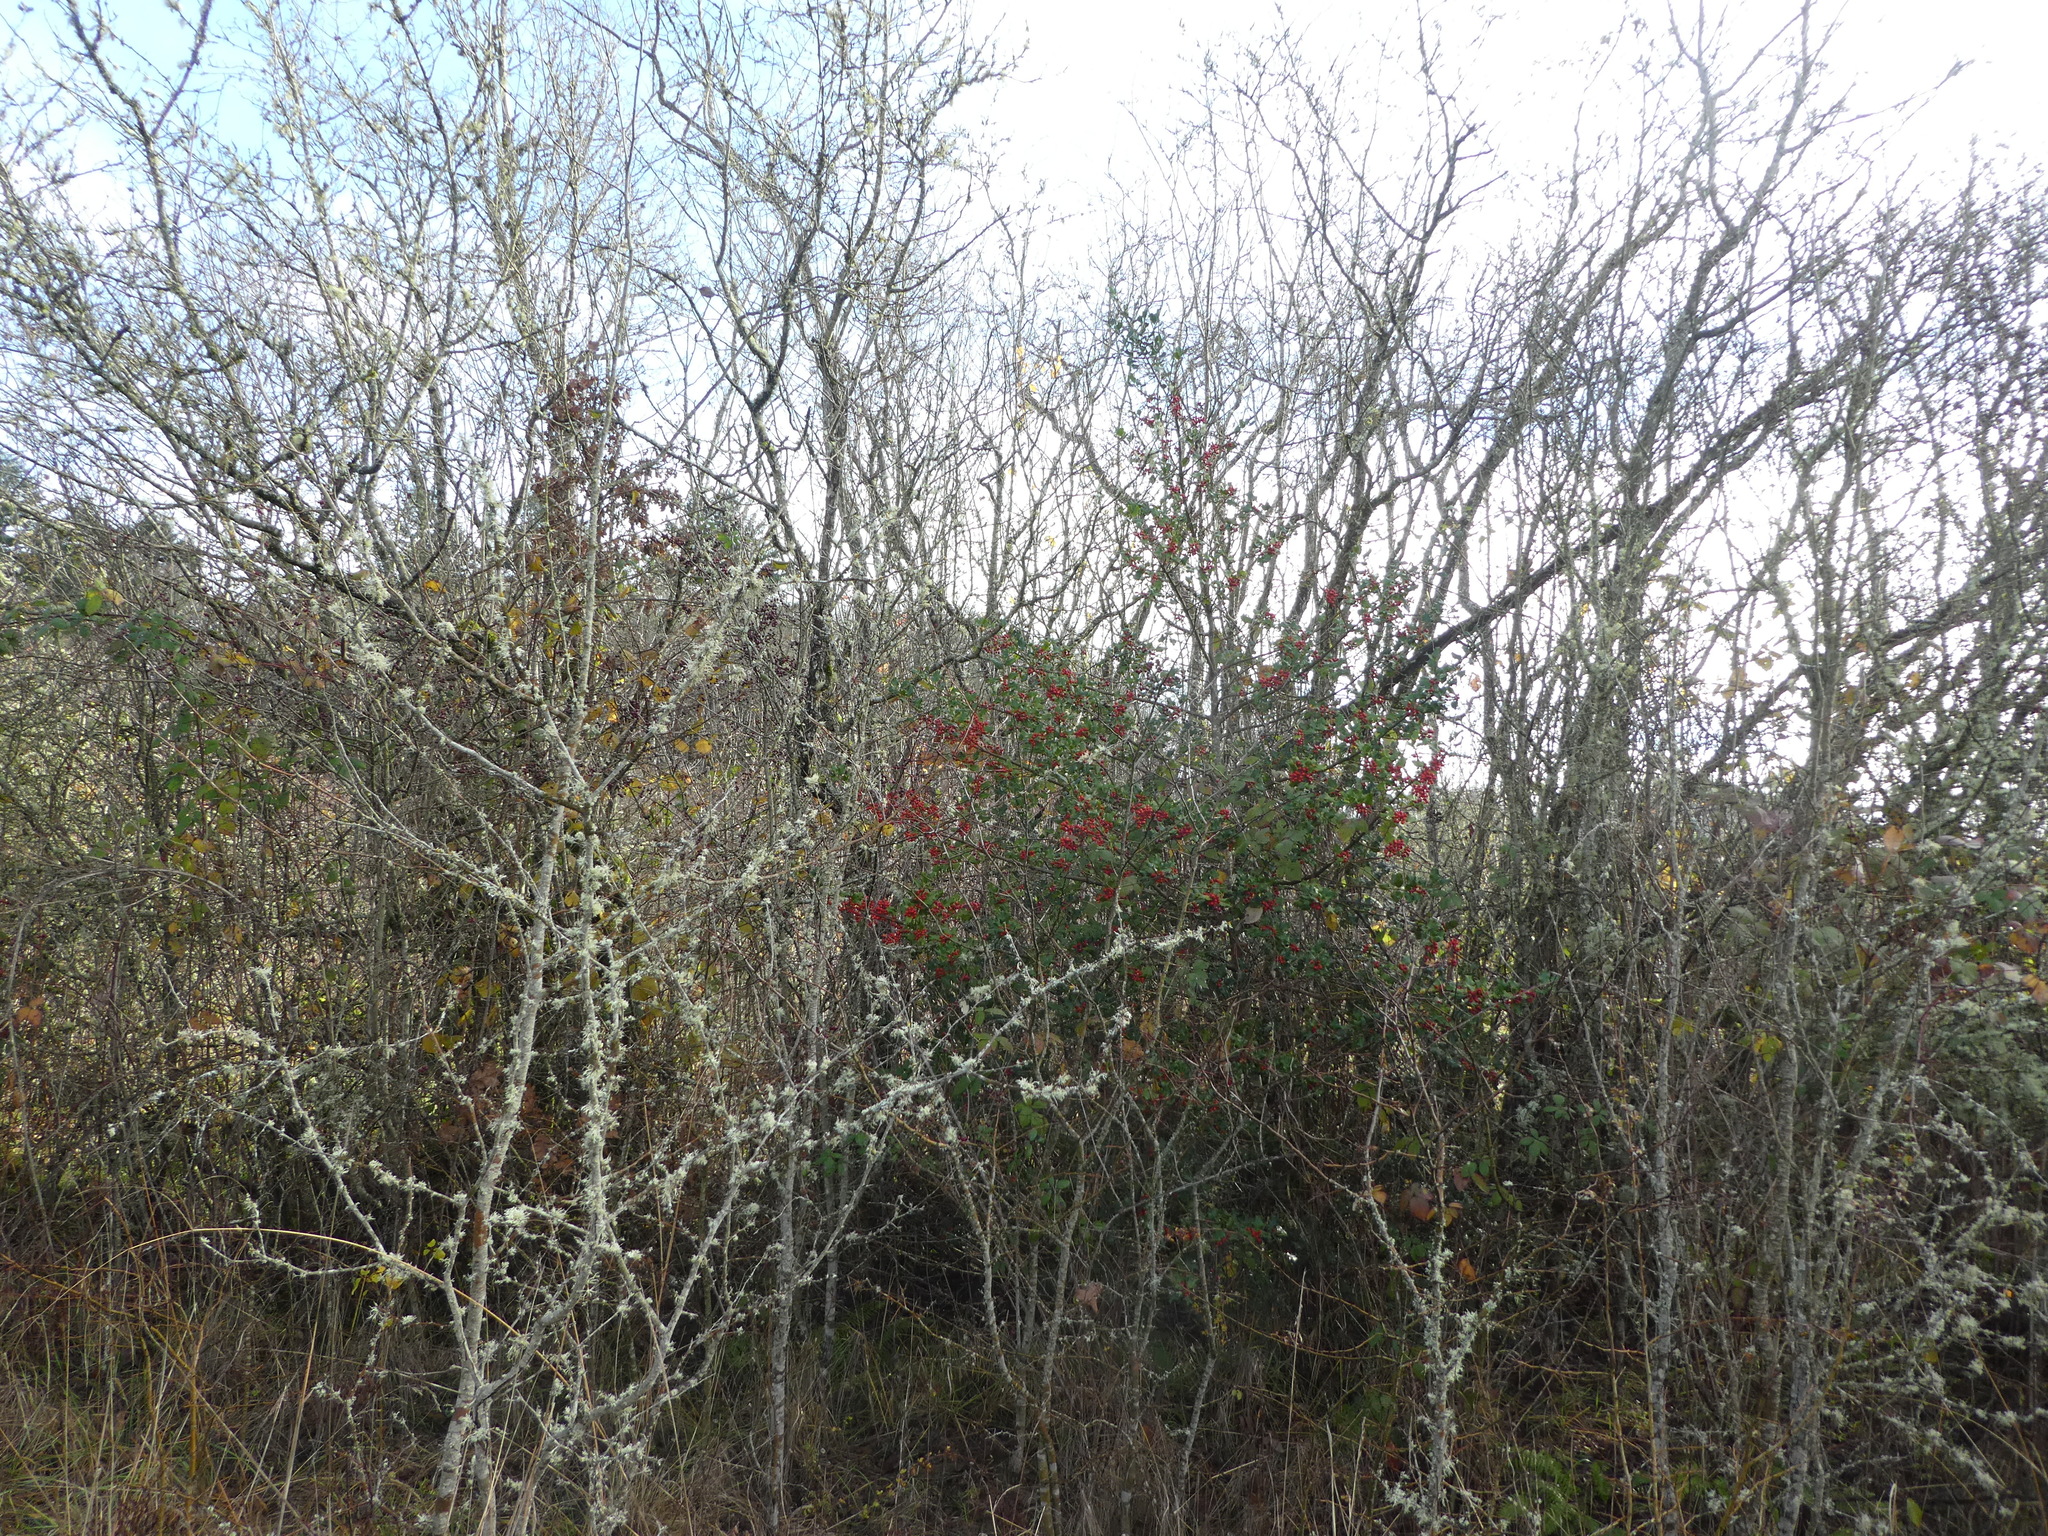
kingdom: Plantae
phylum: Tracheophyta
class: Magnoliopsida
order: Aquifoliales
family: Aquifoliaceae
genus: Ilex
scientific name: Ilex aquifolium
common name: English holly
